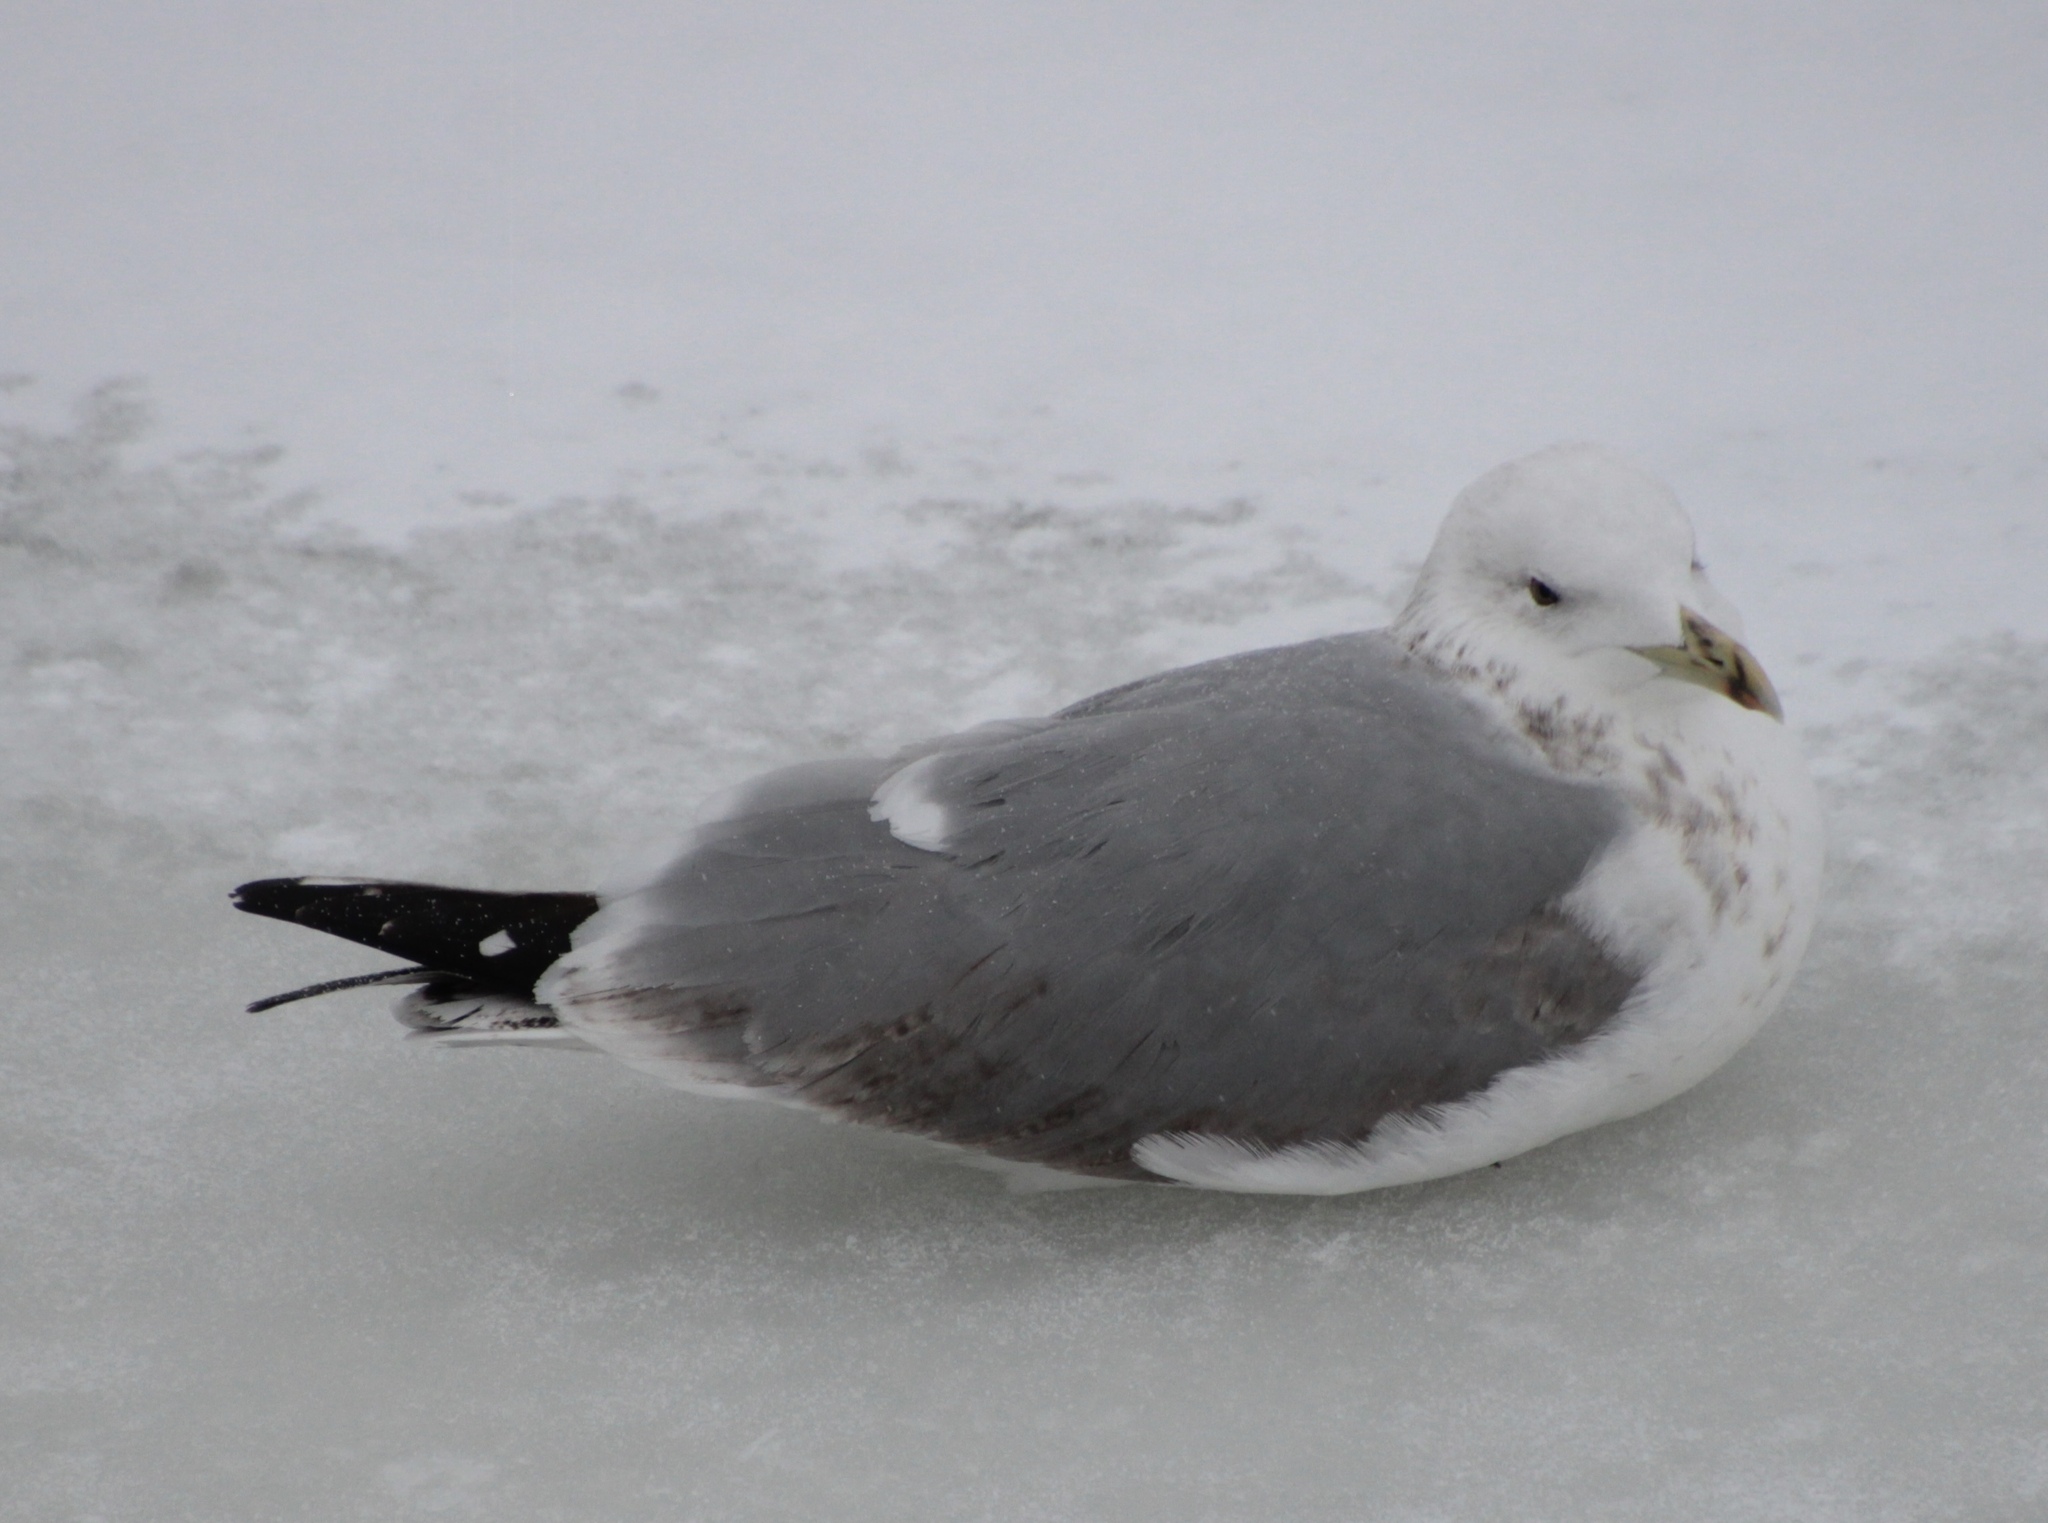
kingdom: Animalia
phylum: Chordata
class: Aves
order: Charadriiformes
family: Laridae
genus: Larus
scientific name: Larus cachinnans
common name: Caspian gull
